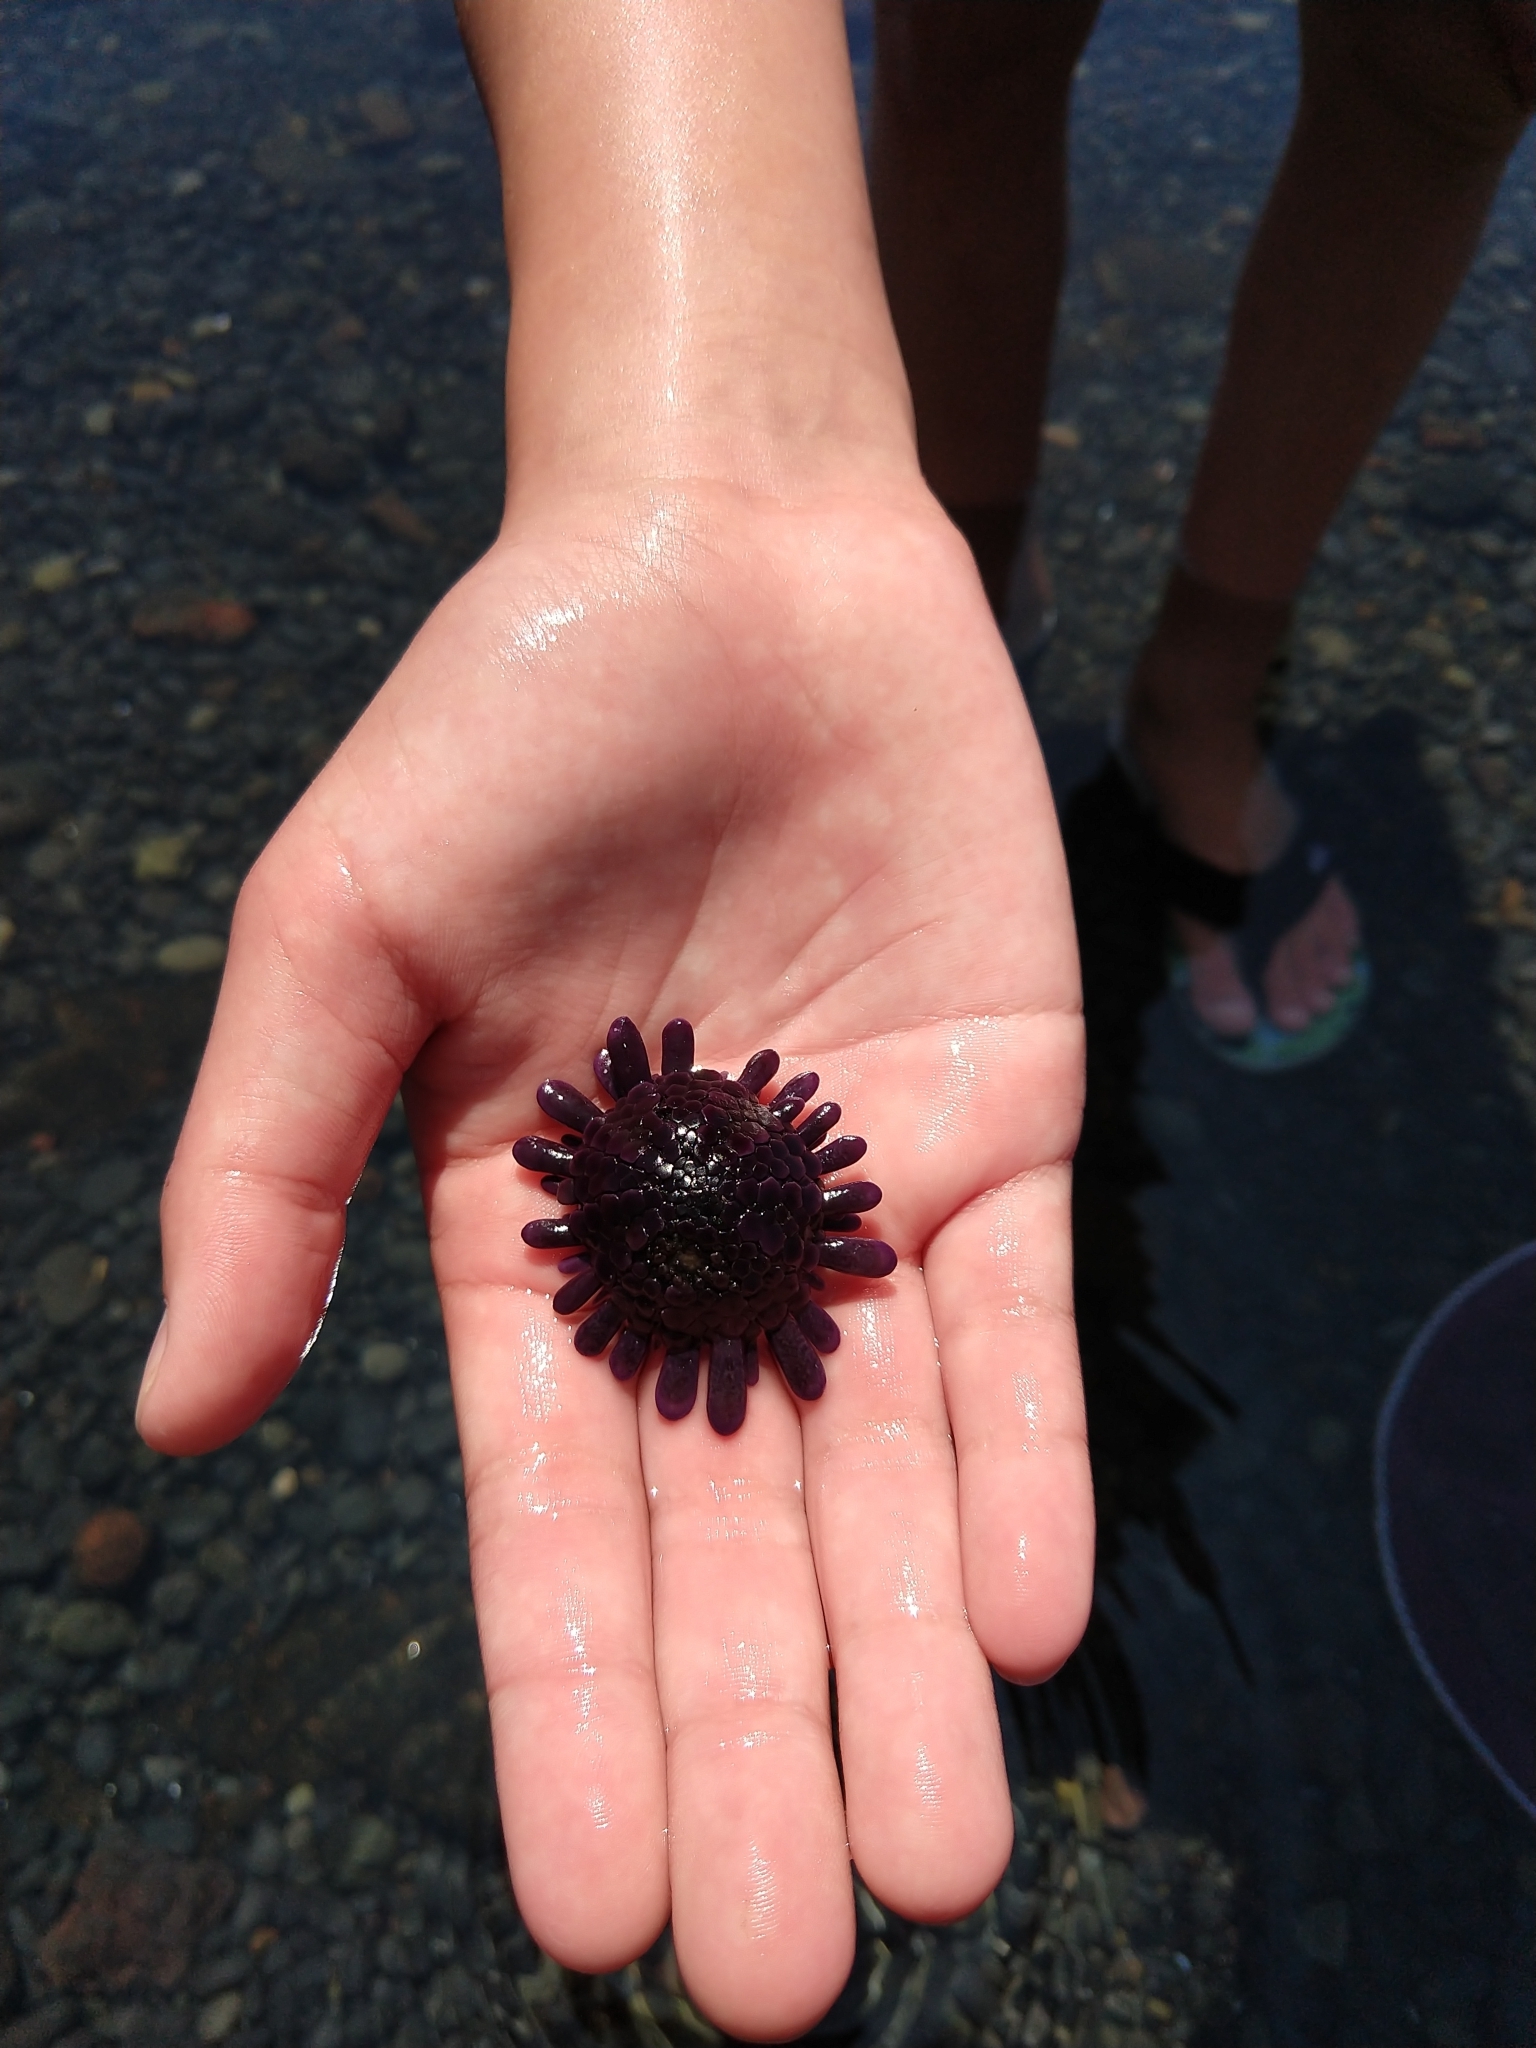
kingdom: Animalia
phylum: Echinodermata
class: Echinoidea
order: Camarodonta
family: Echinometridae
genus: Colobocentrotus
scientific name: Colobocentrotus atratus
